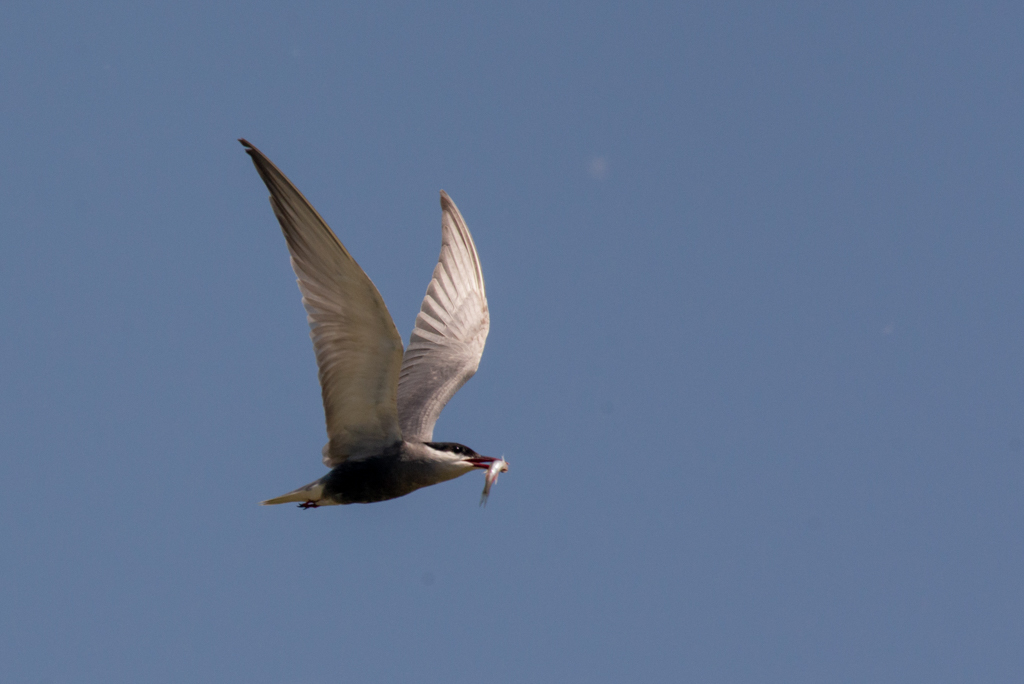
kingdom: Animalia
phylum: Chordata
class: Aves
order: Charadriiformes
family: Laridae
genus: Chlidonias
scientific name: Chlidonias hybrida
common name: Whiskered tern
